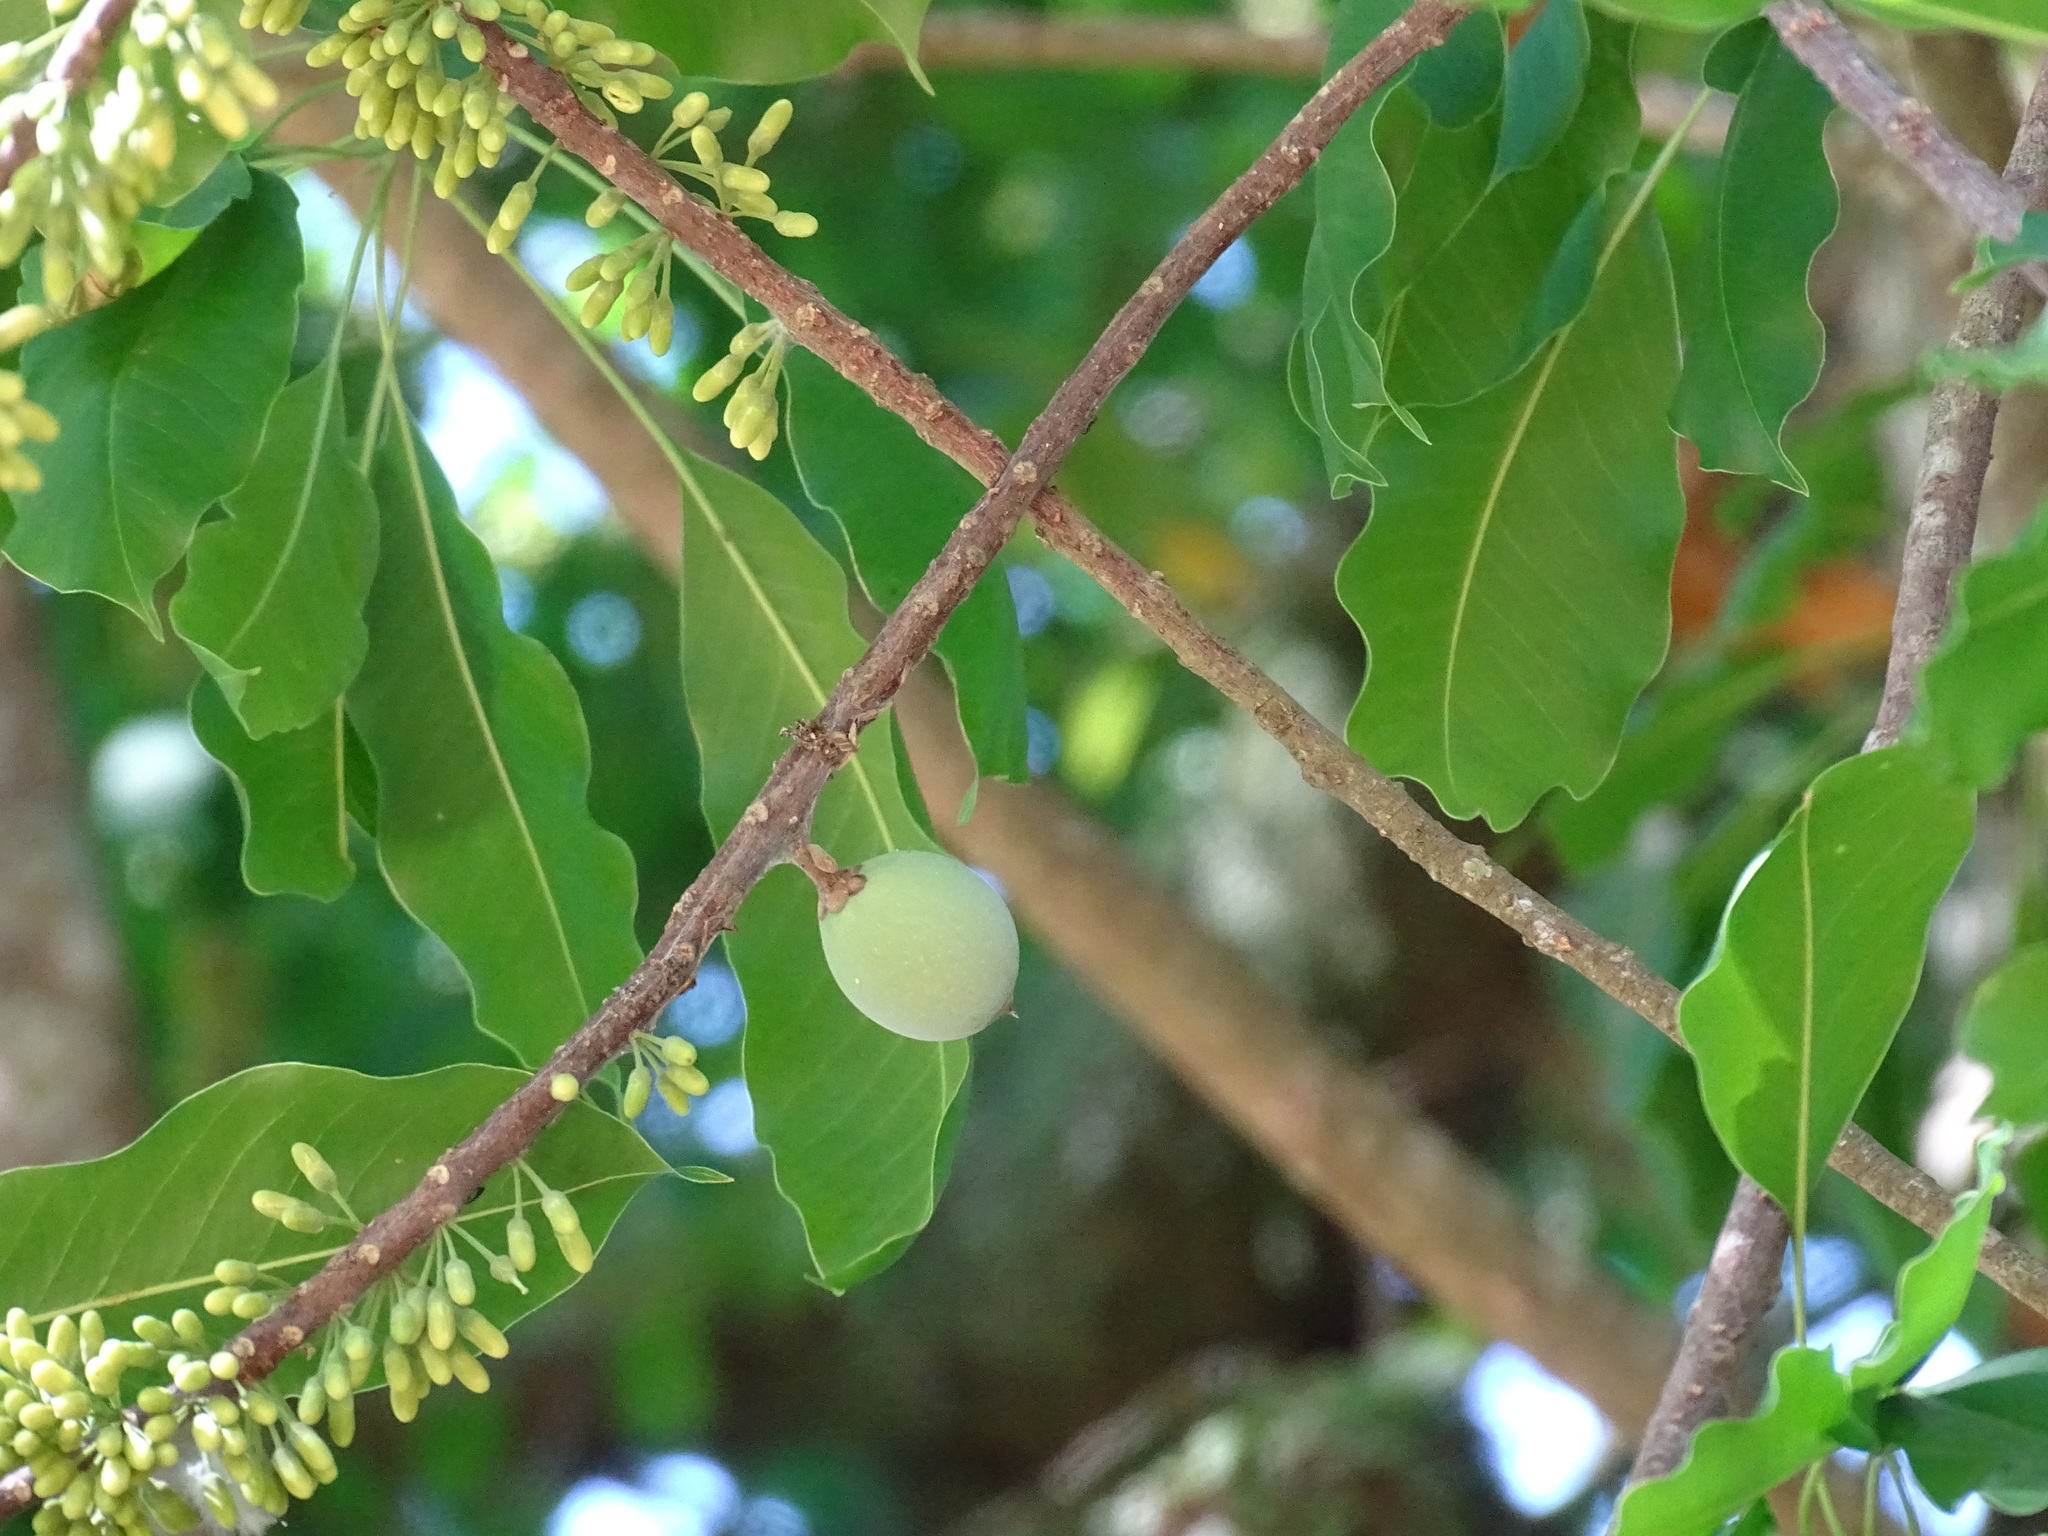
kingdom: Plantae
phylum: Tracheophyta
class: Magnoliopsida
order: Ericales
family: Sapotaceae
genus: Sideroxylon
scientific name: Sideroxylon capiri
